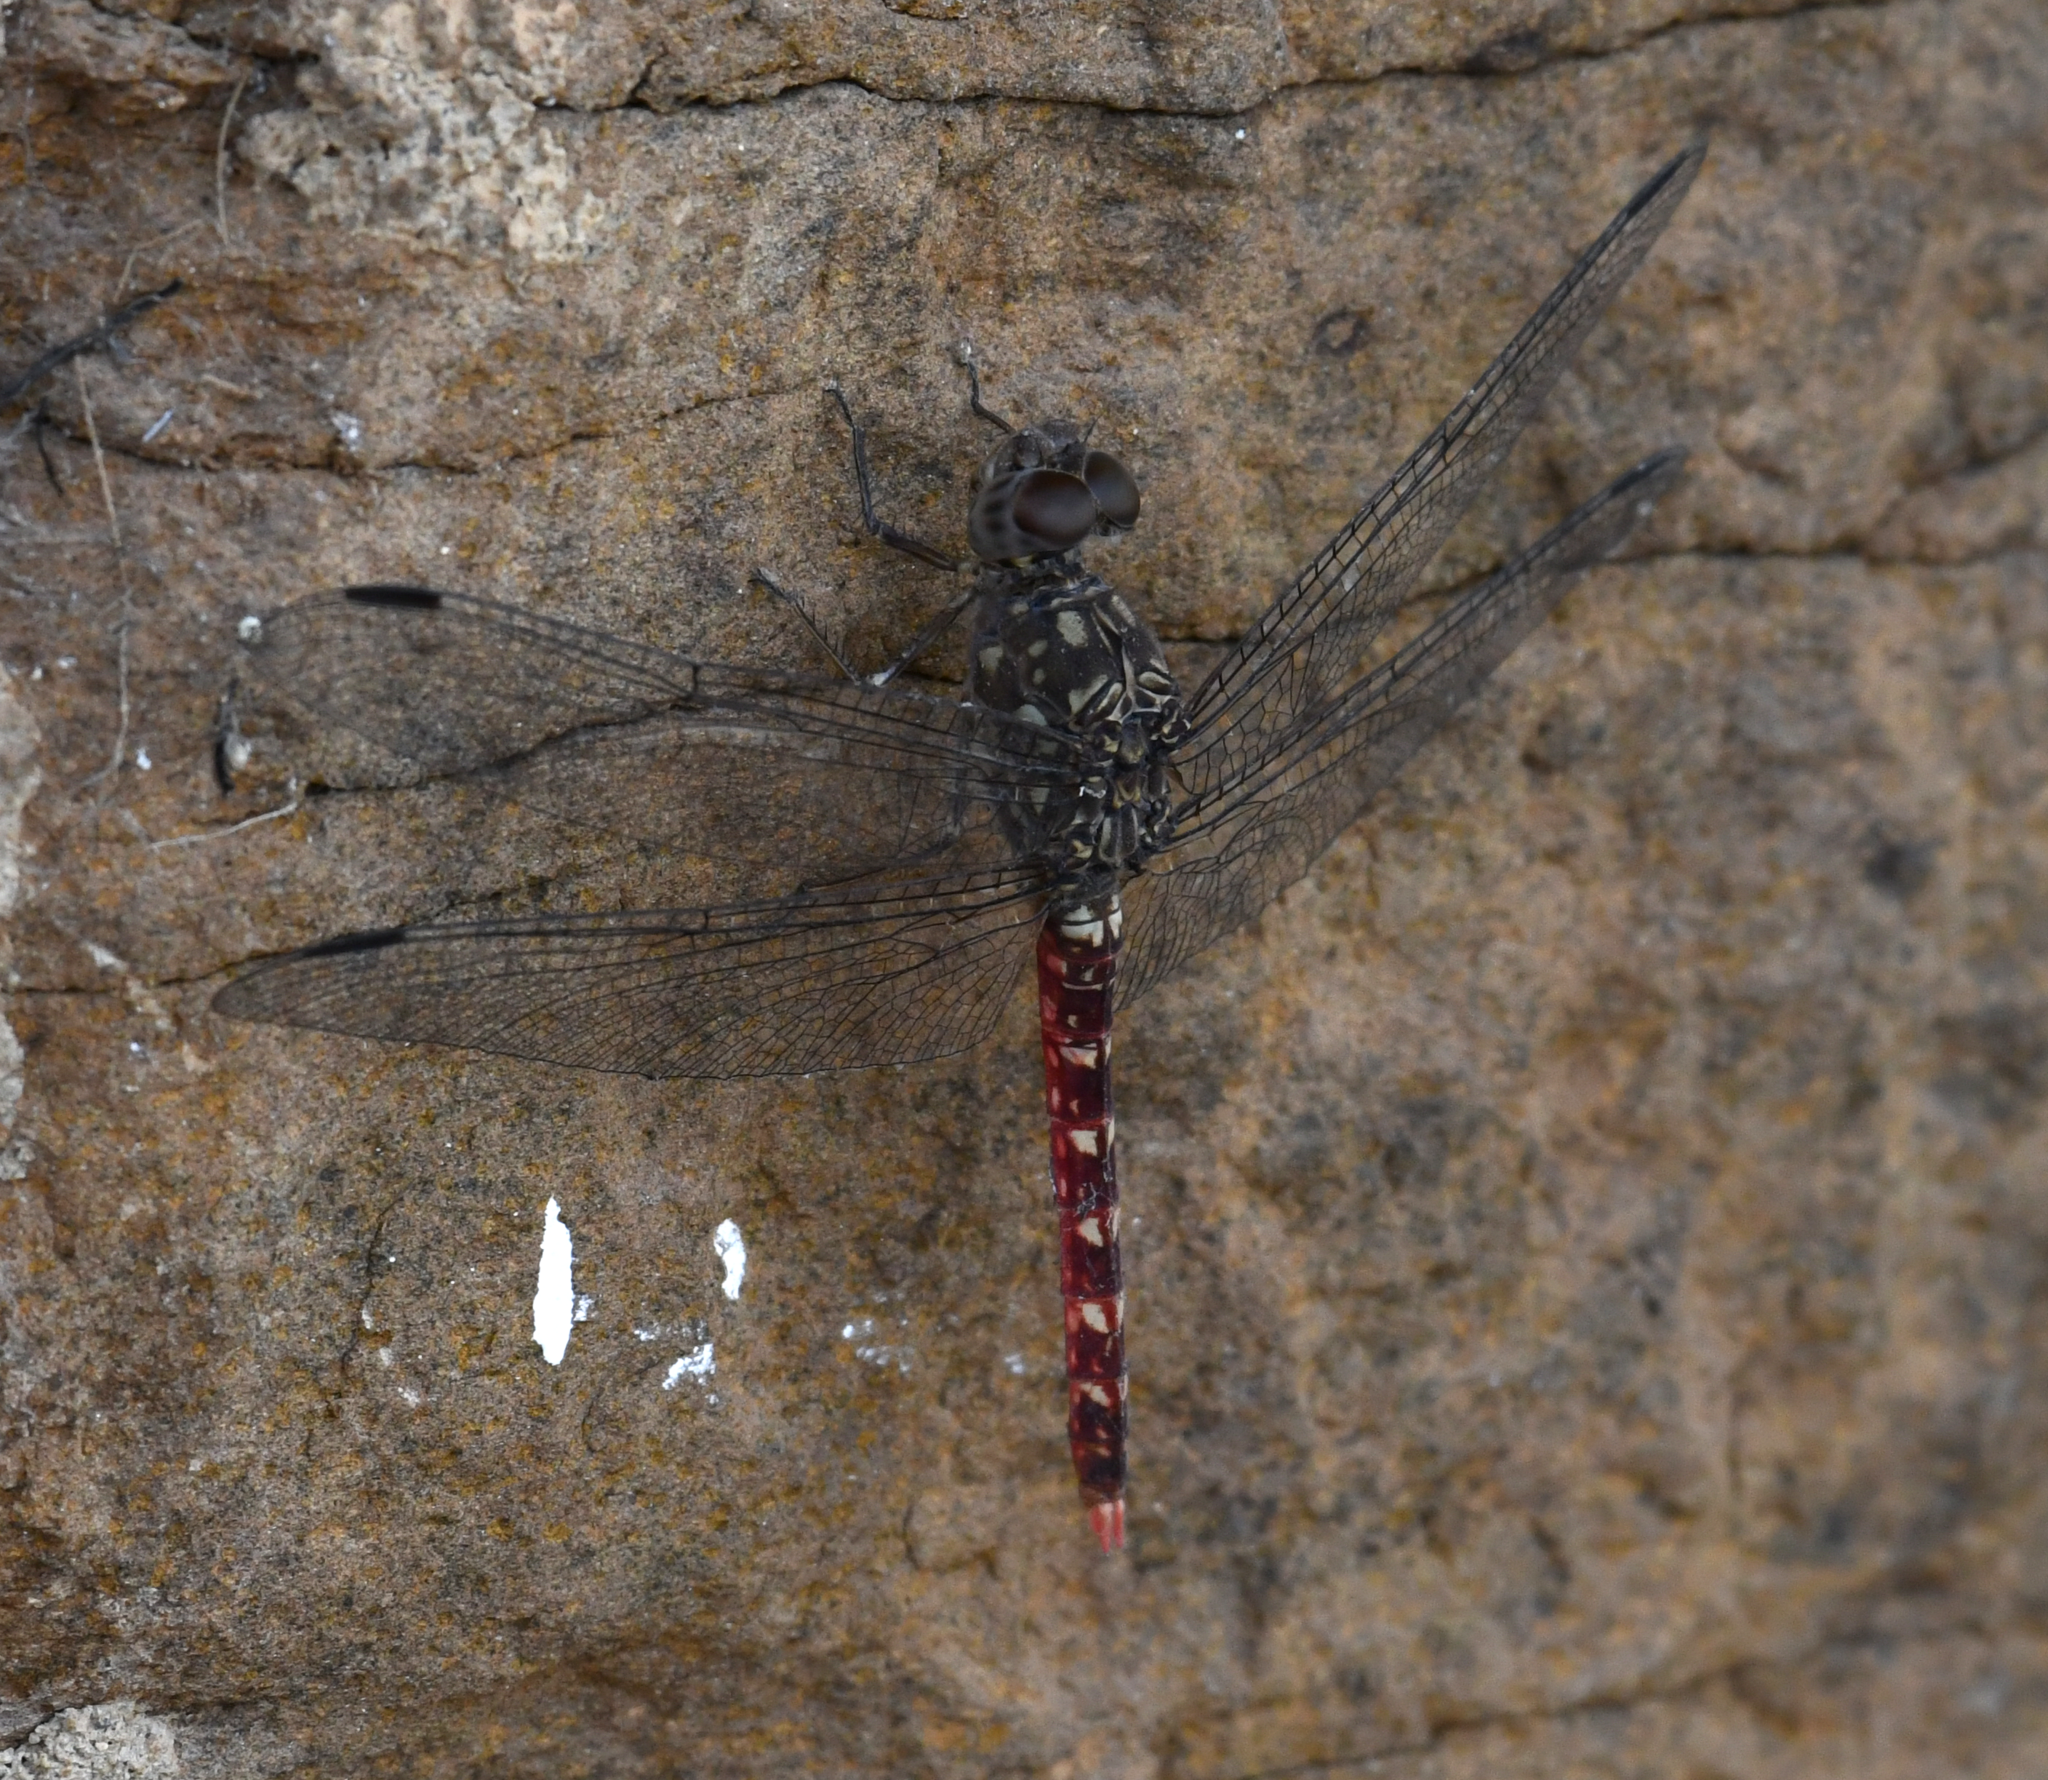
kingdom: Animalia
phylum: Arthropoda
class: Insecta
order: Odonata
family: Libellulidae
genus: Bradinopyga
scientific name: Bradinopyga strachani
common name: Red rock-dweller
